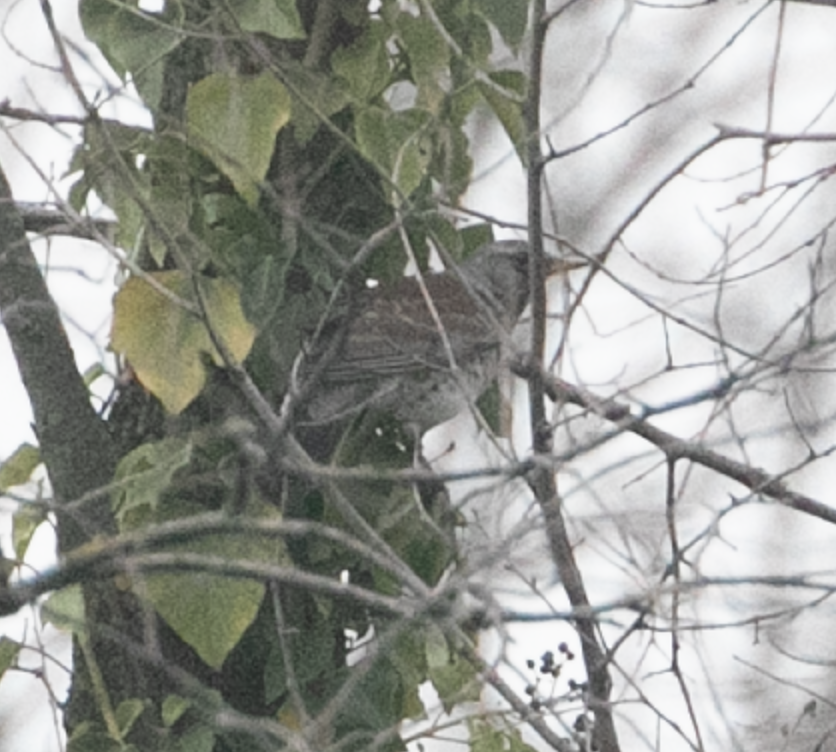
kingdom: Animalia
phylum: Chordata
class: Aves
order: Passeriformes
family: Turdidae
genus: Turdus
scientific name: Turdus pilaris
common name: Fieldfare
